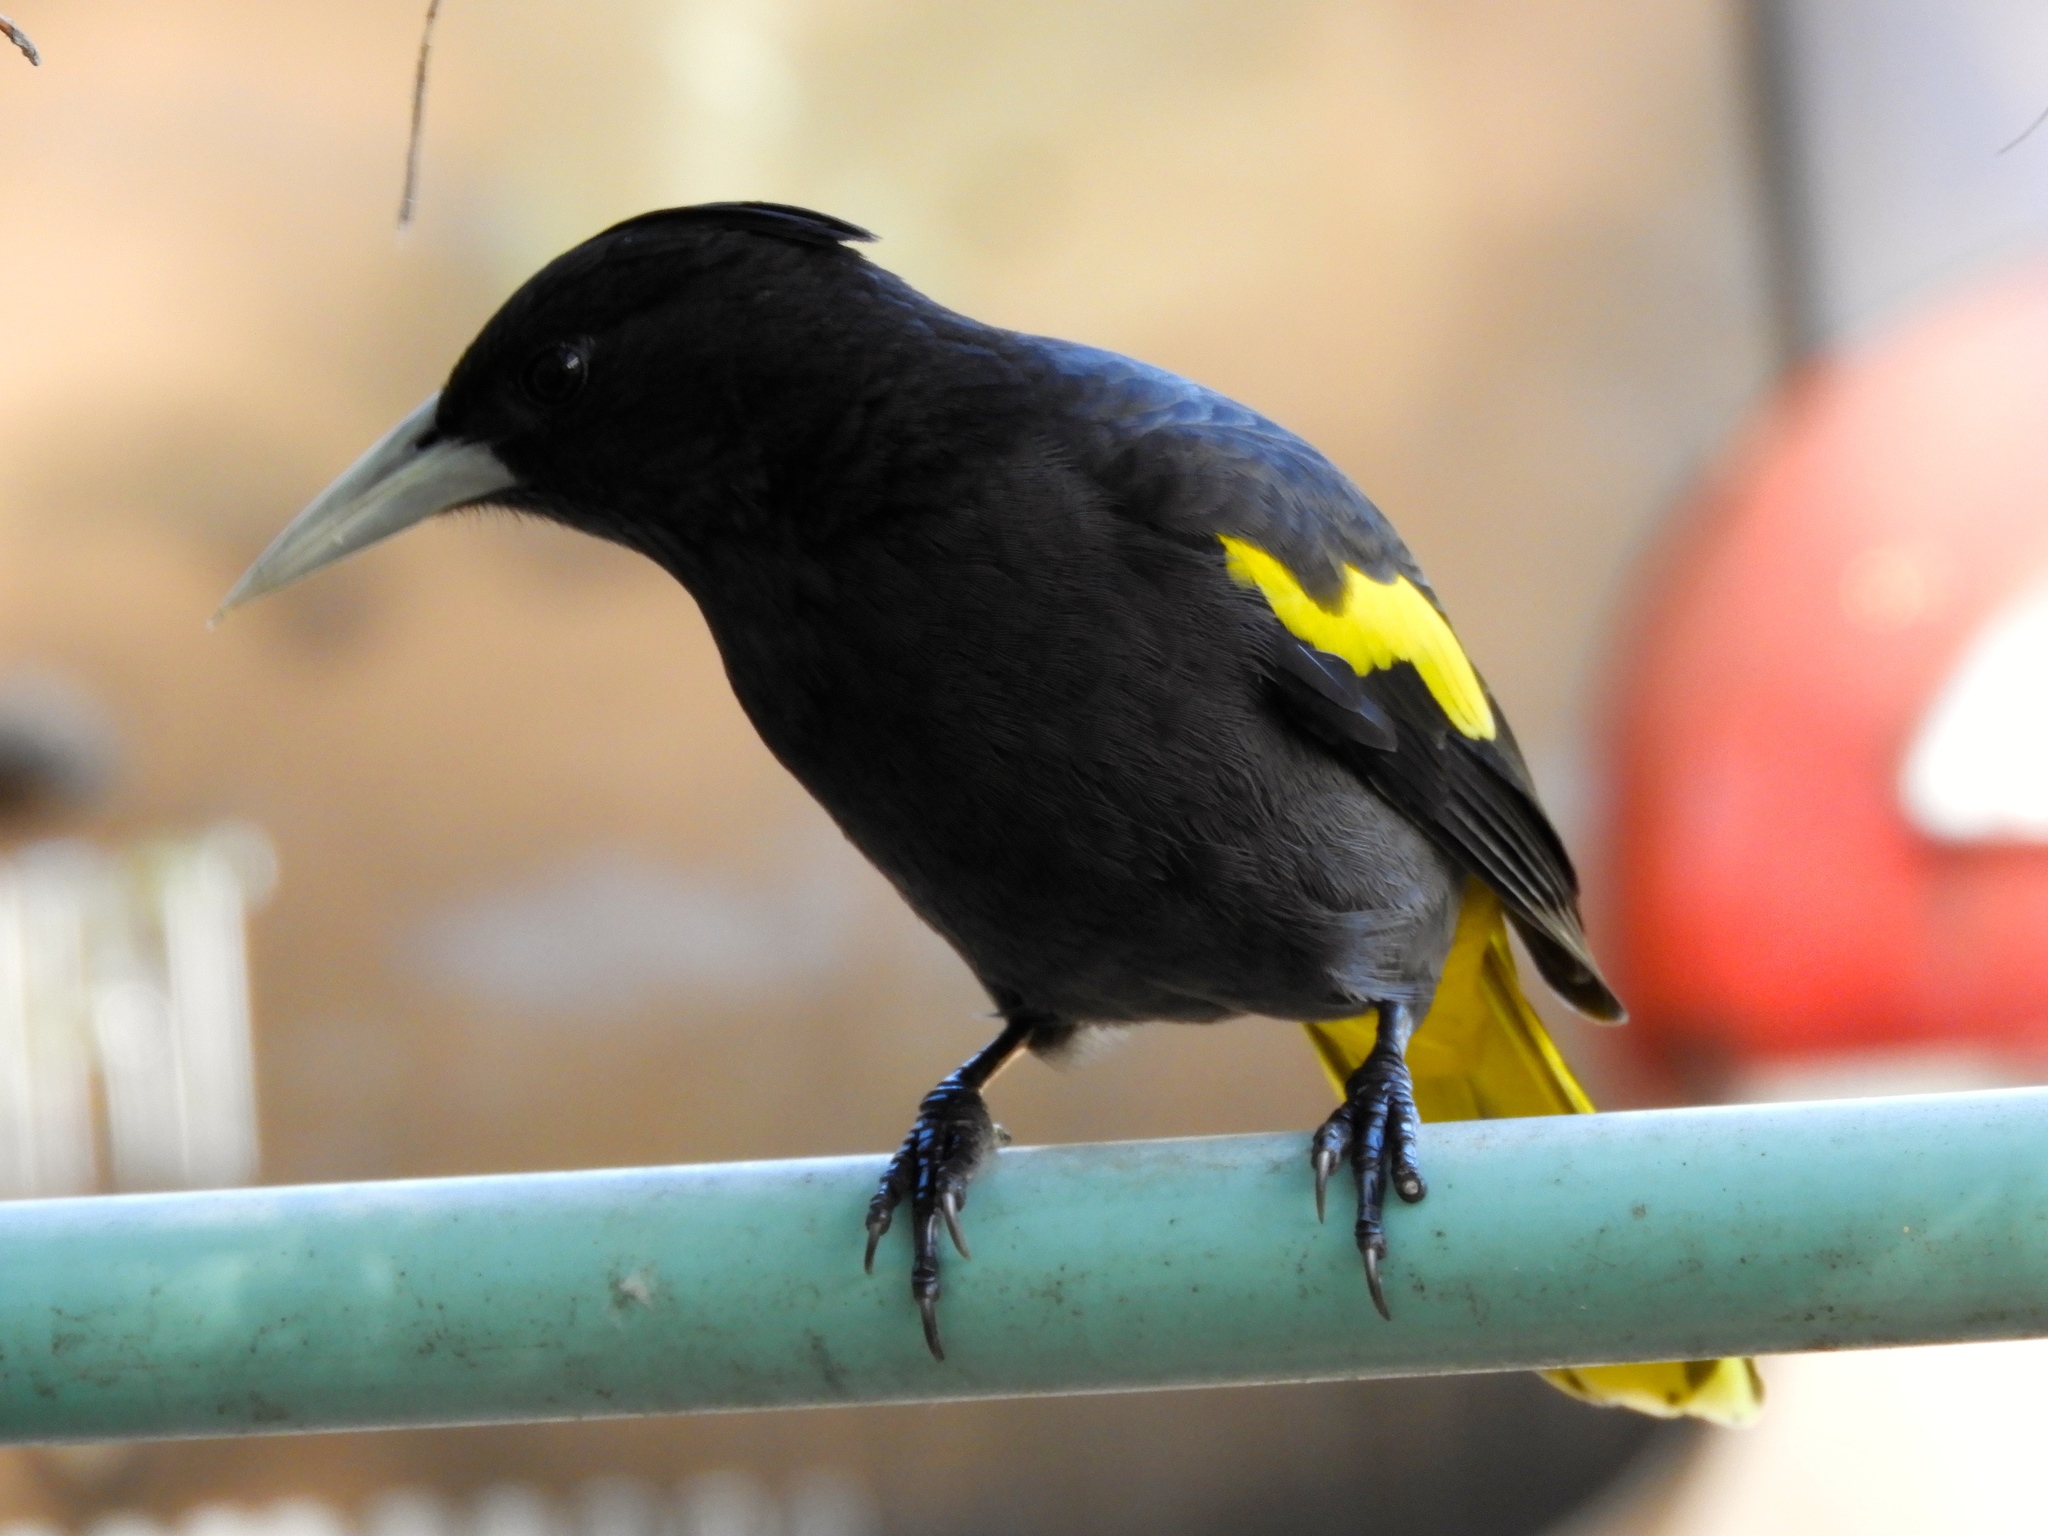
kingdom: Animalia
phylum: Chordata
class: Aves
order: Passeriformes
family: Icteridae
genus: Cacicus
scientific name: Cacicus melanicterus
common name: Yellow-winged cacique
